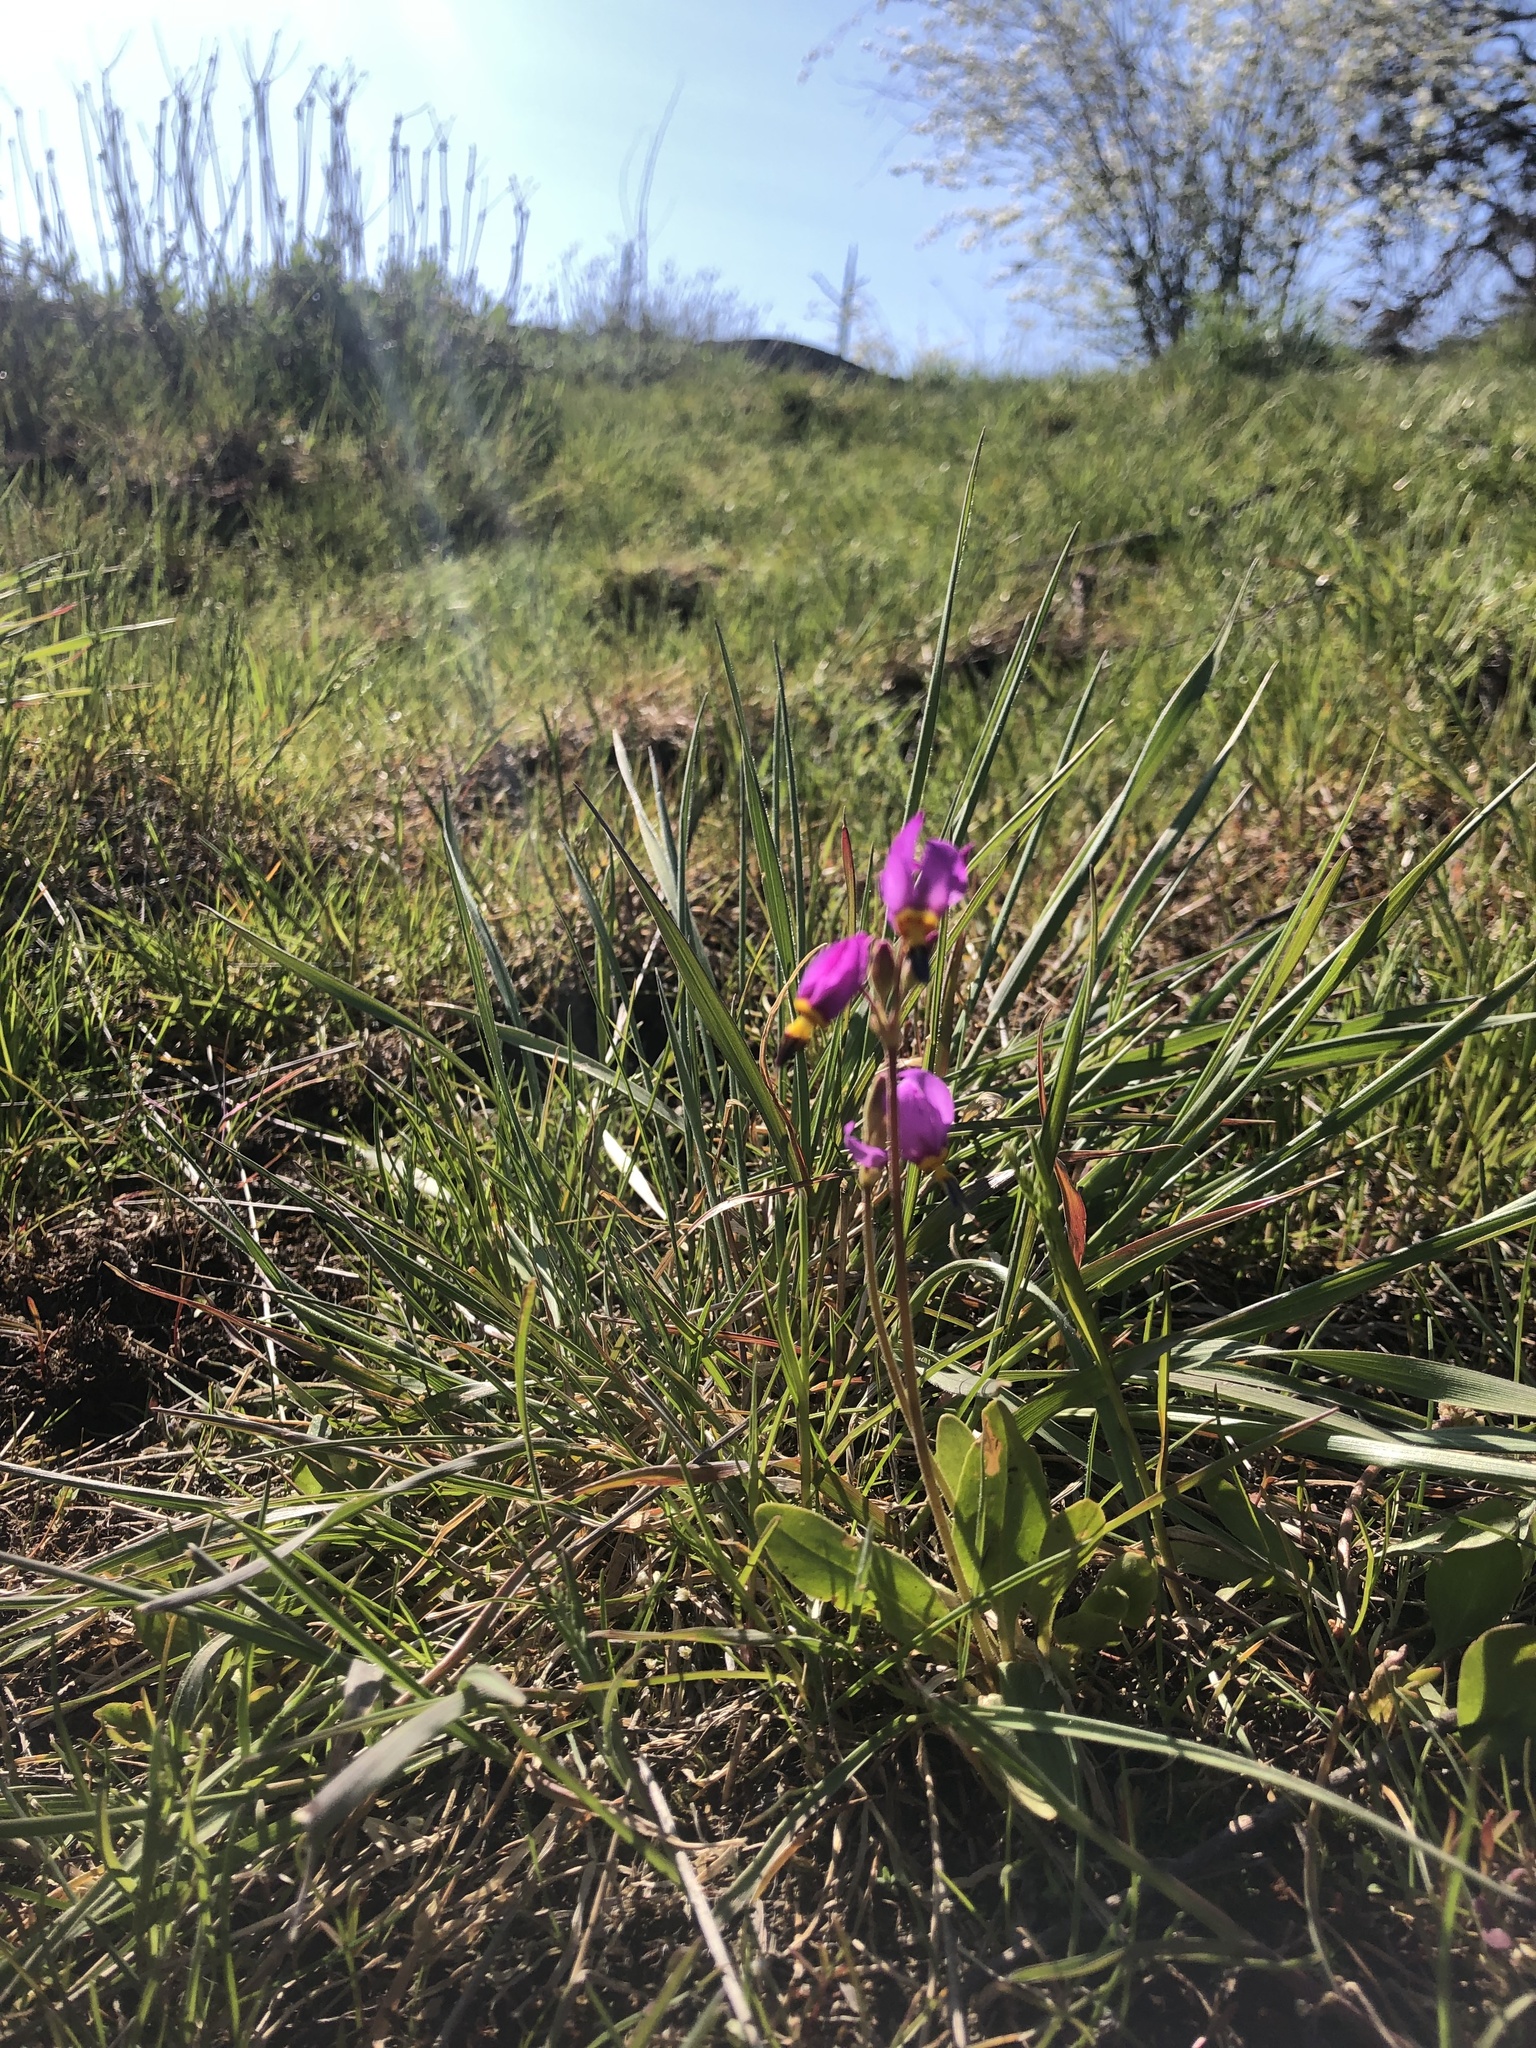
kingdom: Plantae
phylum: Tracheophyta
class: Magnoliopsida
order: Ericales
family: Primulaceae
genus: Dodecatheon
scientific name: Dodecatheon pulchellum
